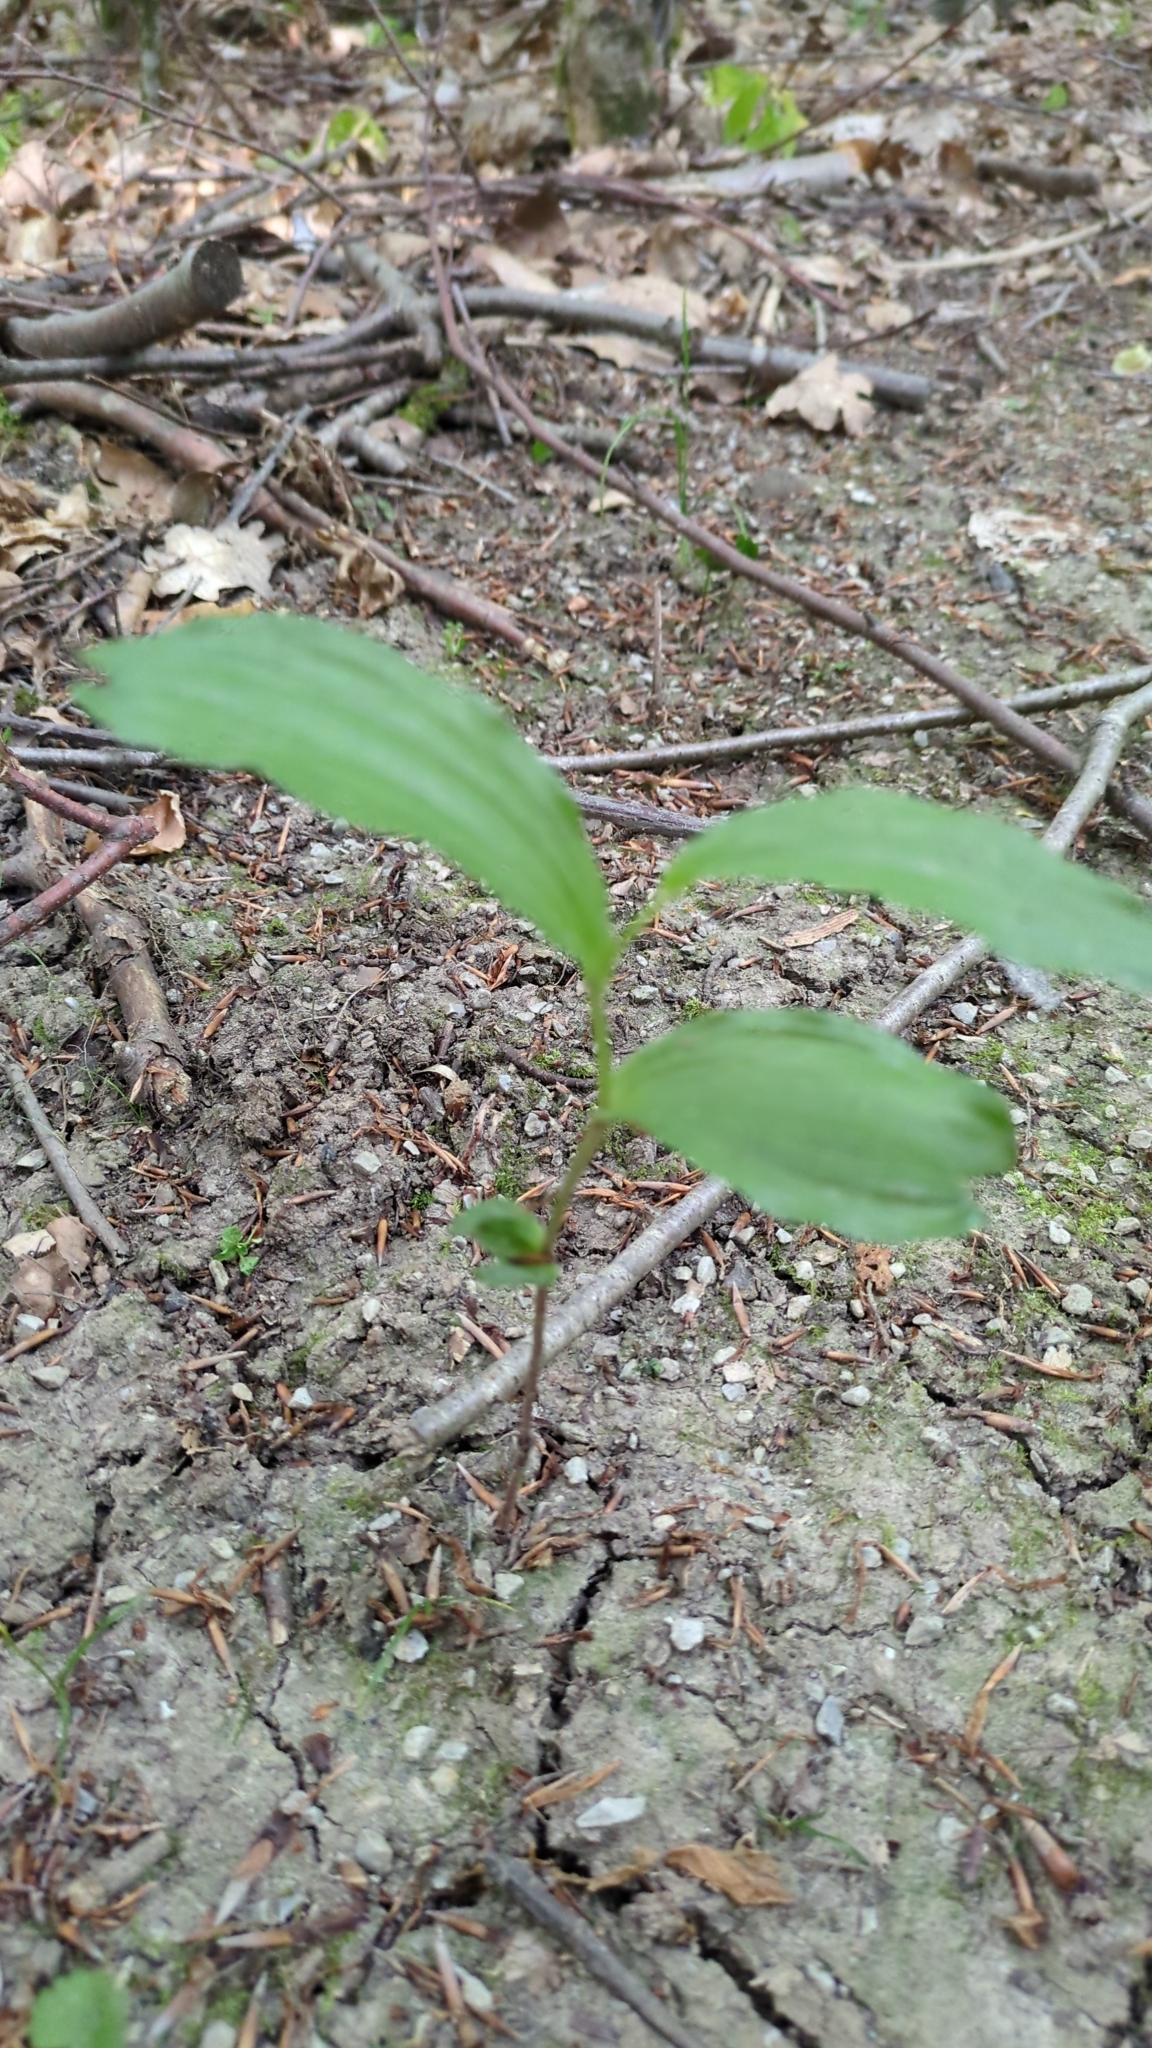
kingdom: Plantae
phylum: Tracheophyta
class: Liliopsida
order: Asparagales
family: Orchidaceae
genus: Epipactis
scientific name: Epipactis helleborine
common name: Broad-leaved helleborine
